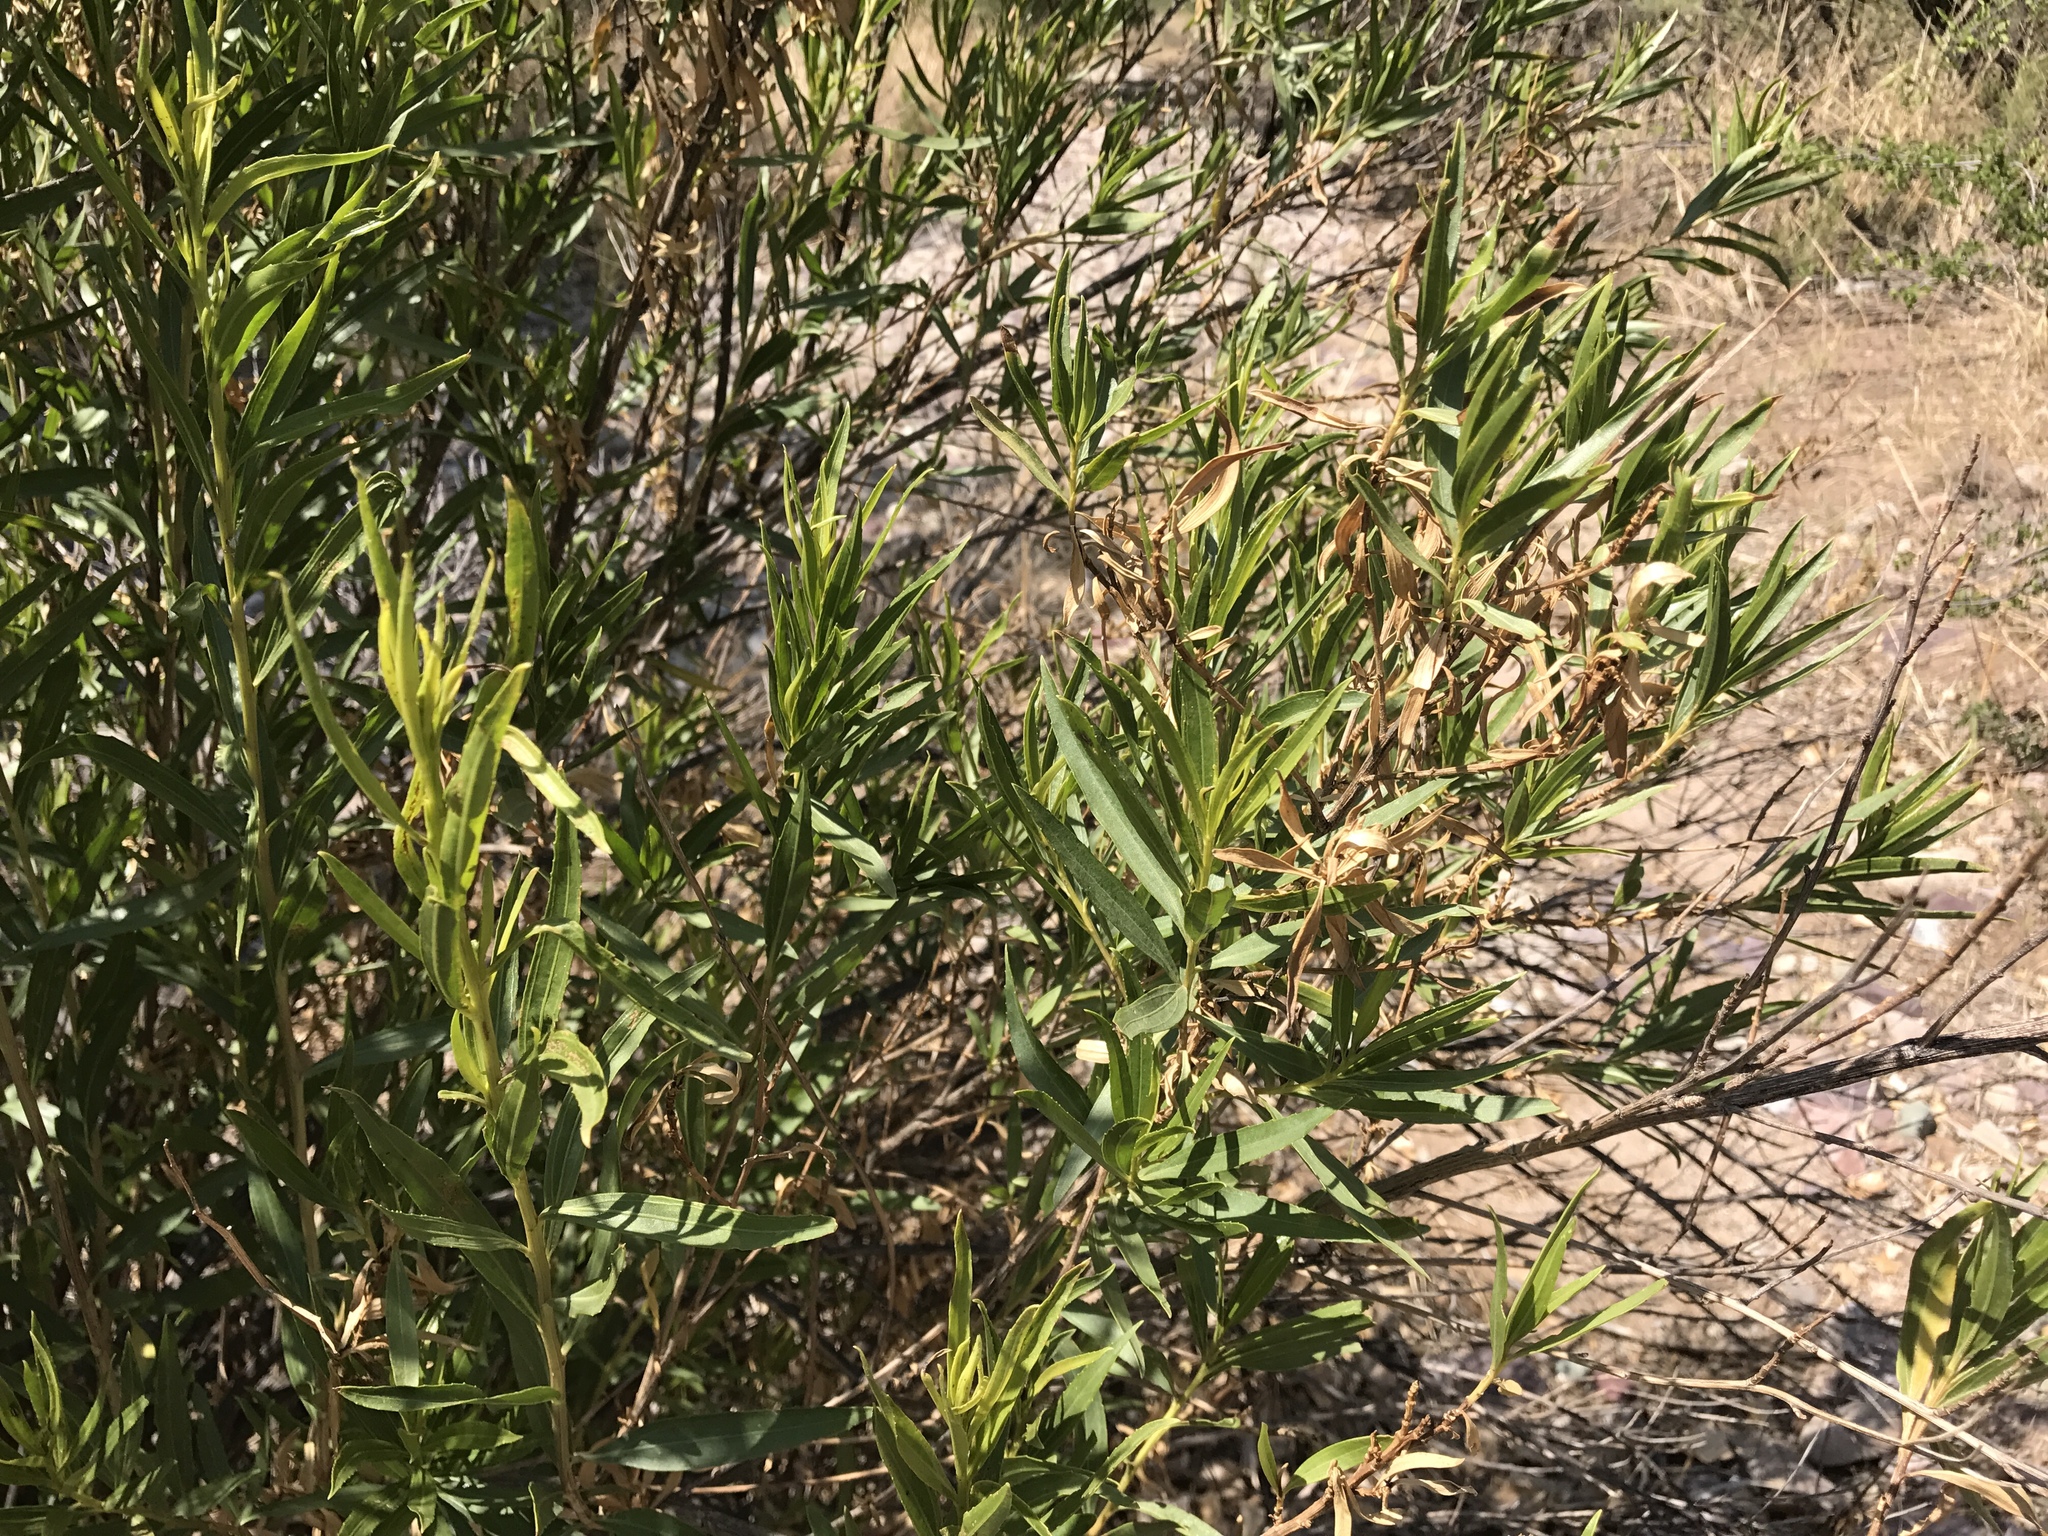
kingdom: Plantae
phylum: Tracheophyta
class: Magnoliopsida
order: Asterales
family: Asteraceae
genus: Baccharis
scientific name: Baccharis salicifolia
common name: Sticky baccharis
